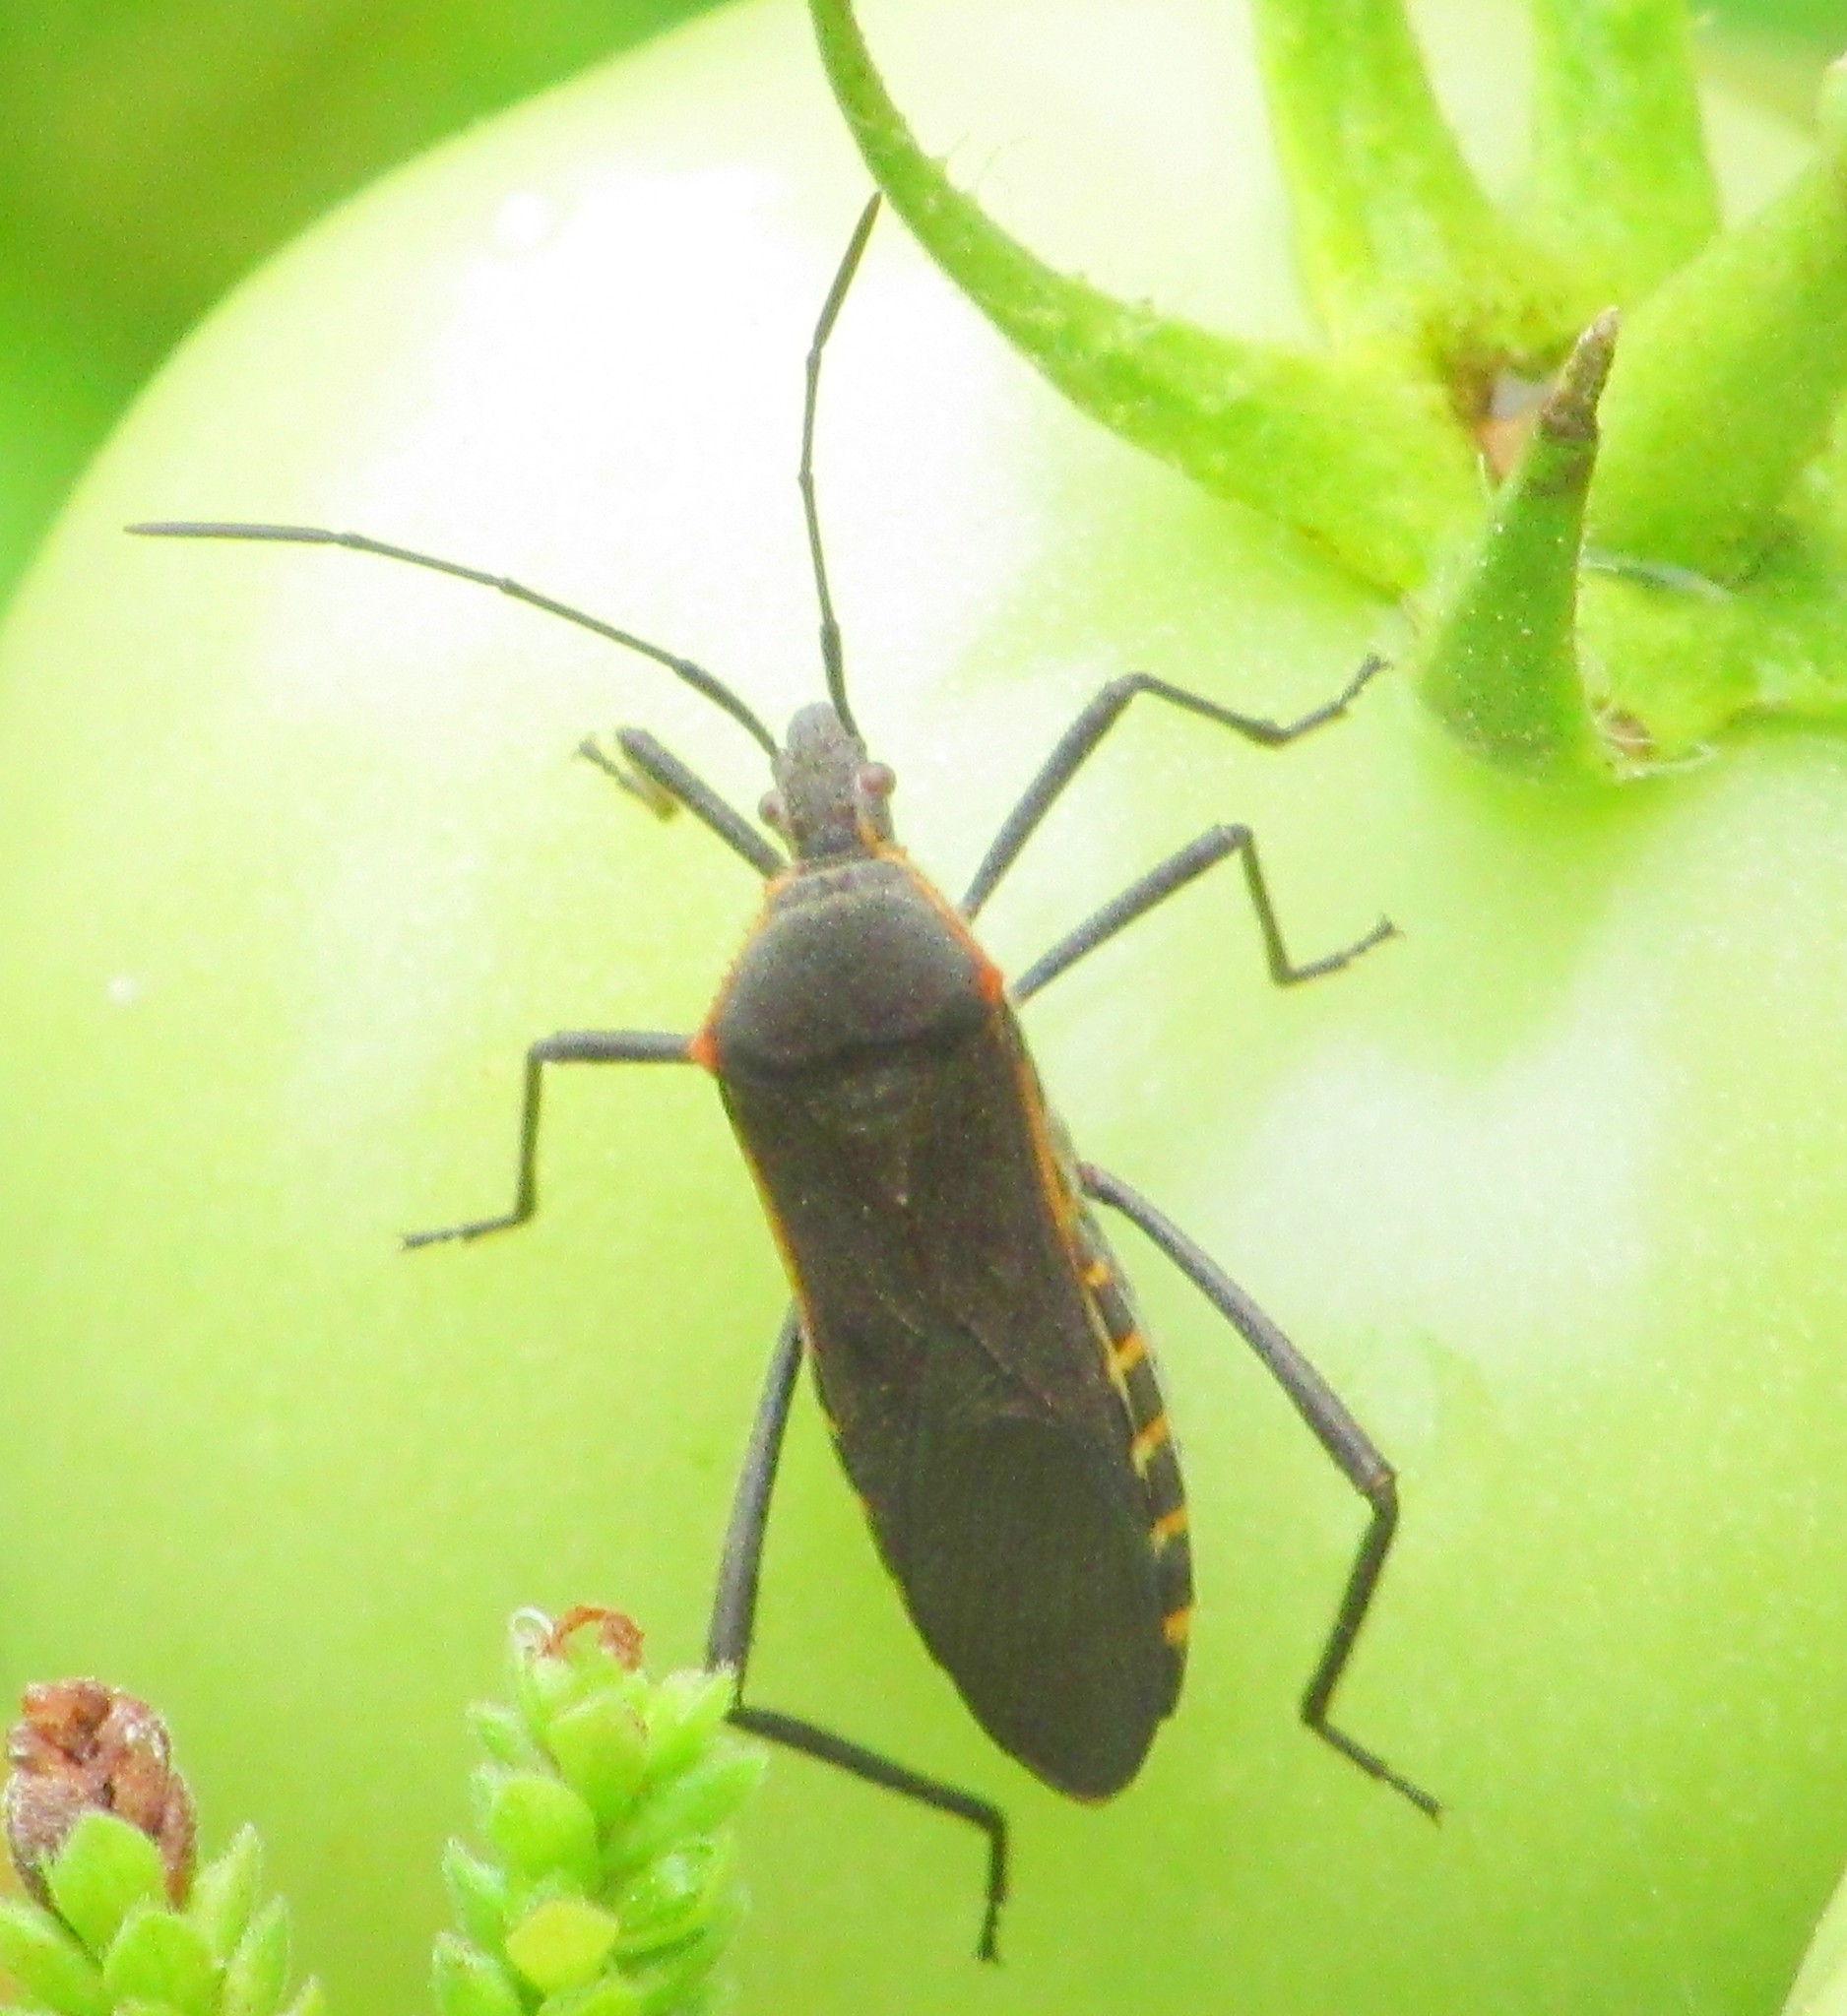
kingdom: Animalia
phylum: Arthropoda
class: Insecta
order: Hemiptera
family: Coreidae
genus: Phthiacnemia
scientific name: Phthiacnemia picta
